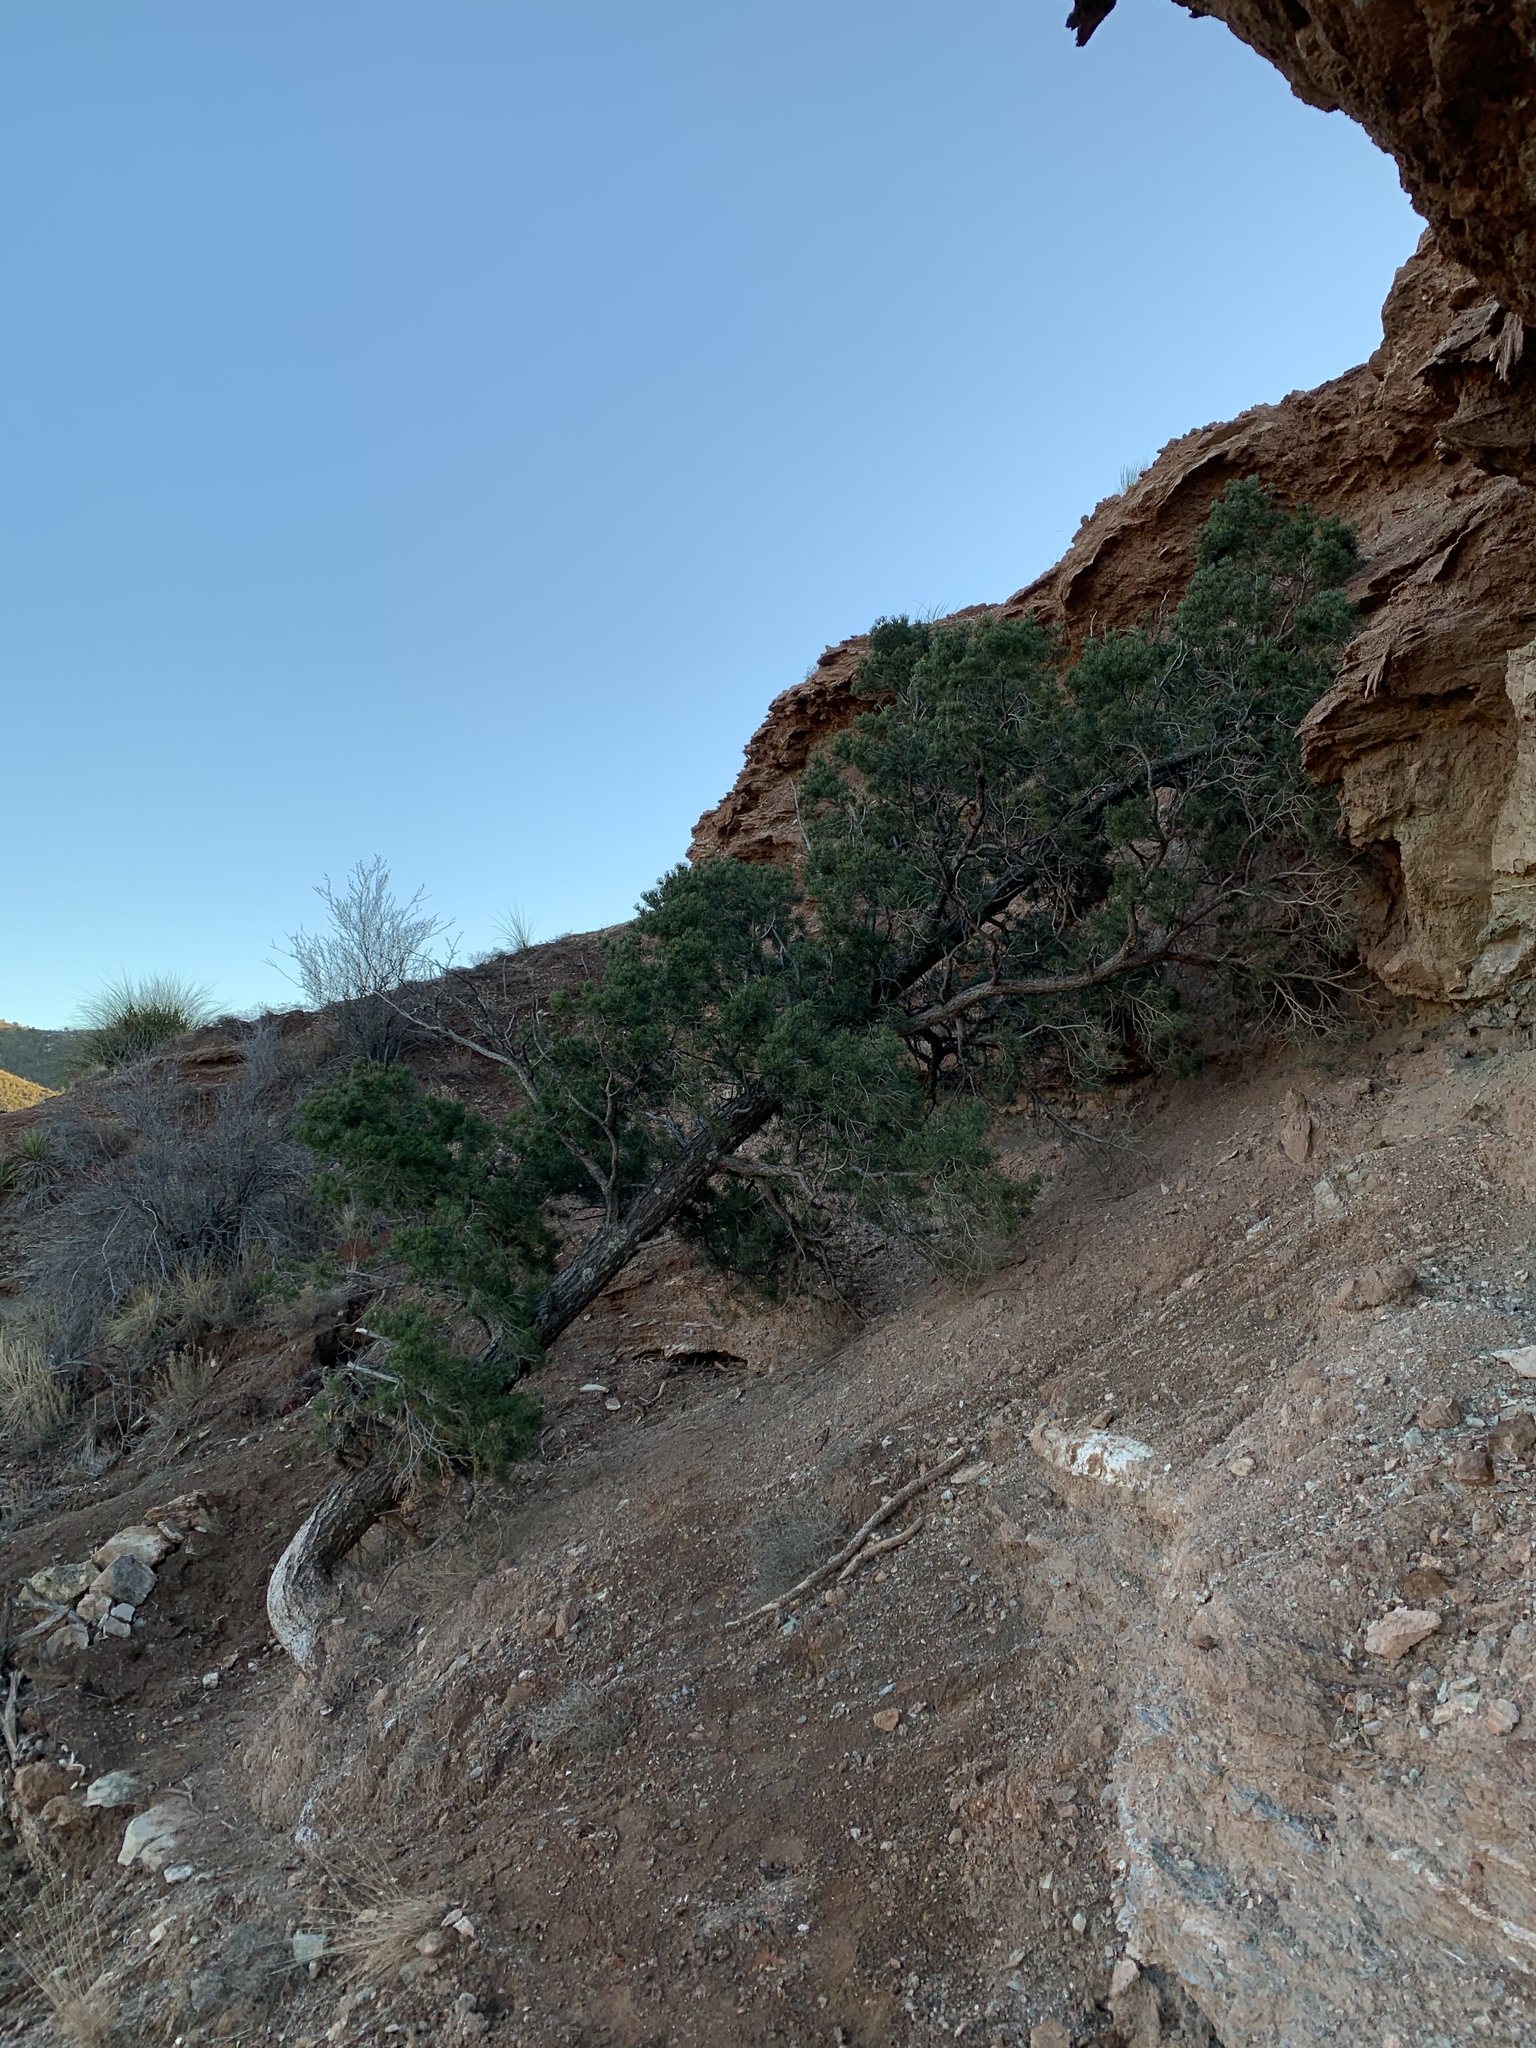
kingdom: Plantae
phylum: Tracheophyta
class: Pinopsida
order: Pinales
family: Pinaceae
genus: Pinus
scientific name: Pinus edulis
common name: Colorado pinyon
